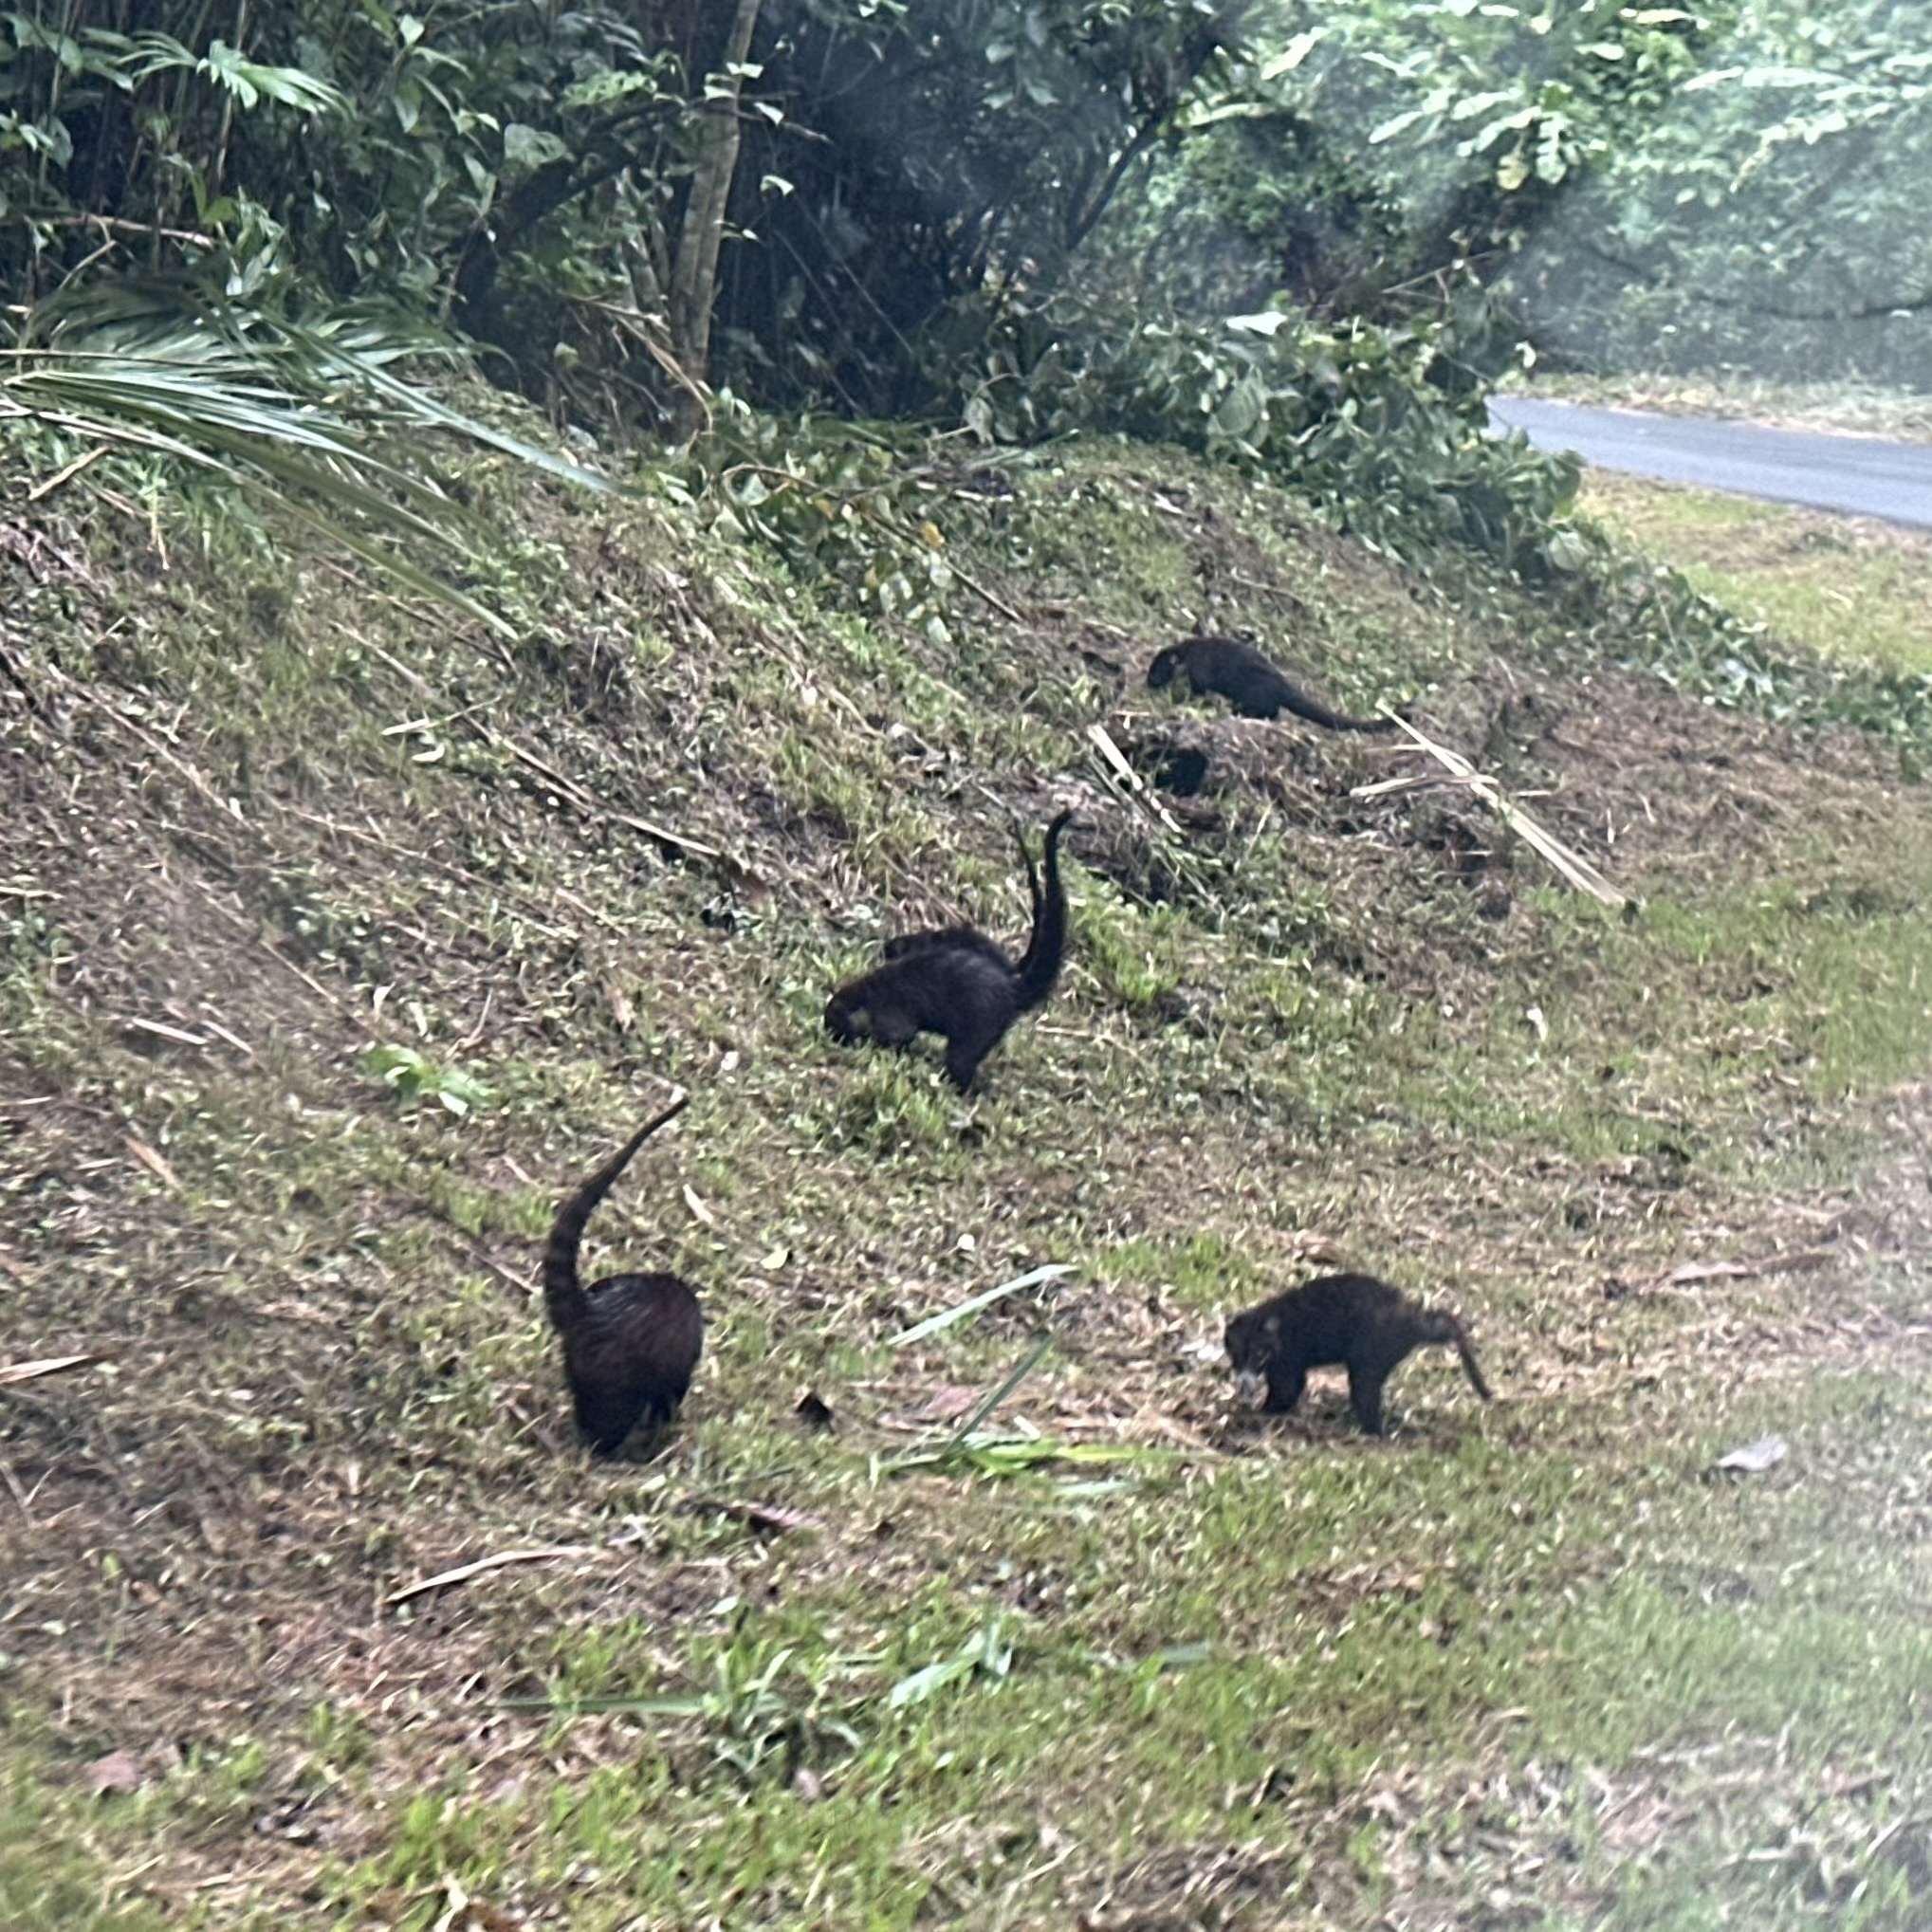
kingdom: Animalia
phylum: Chordata
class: Mammalia
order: Carnivora
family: Procyonidae
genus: Nasua
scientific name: Nasua narica
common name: White-nosed coati
